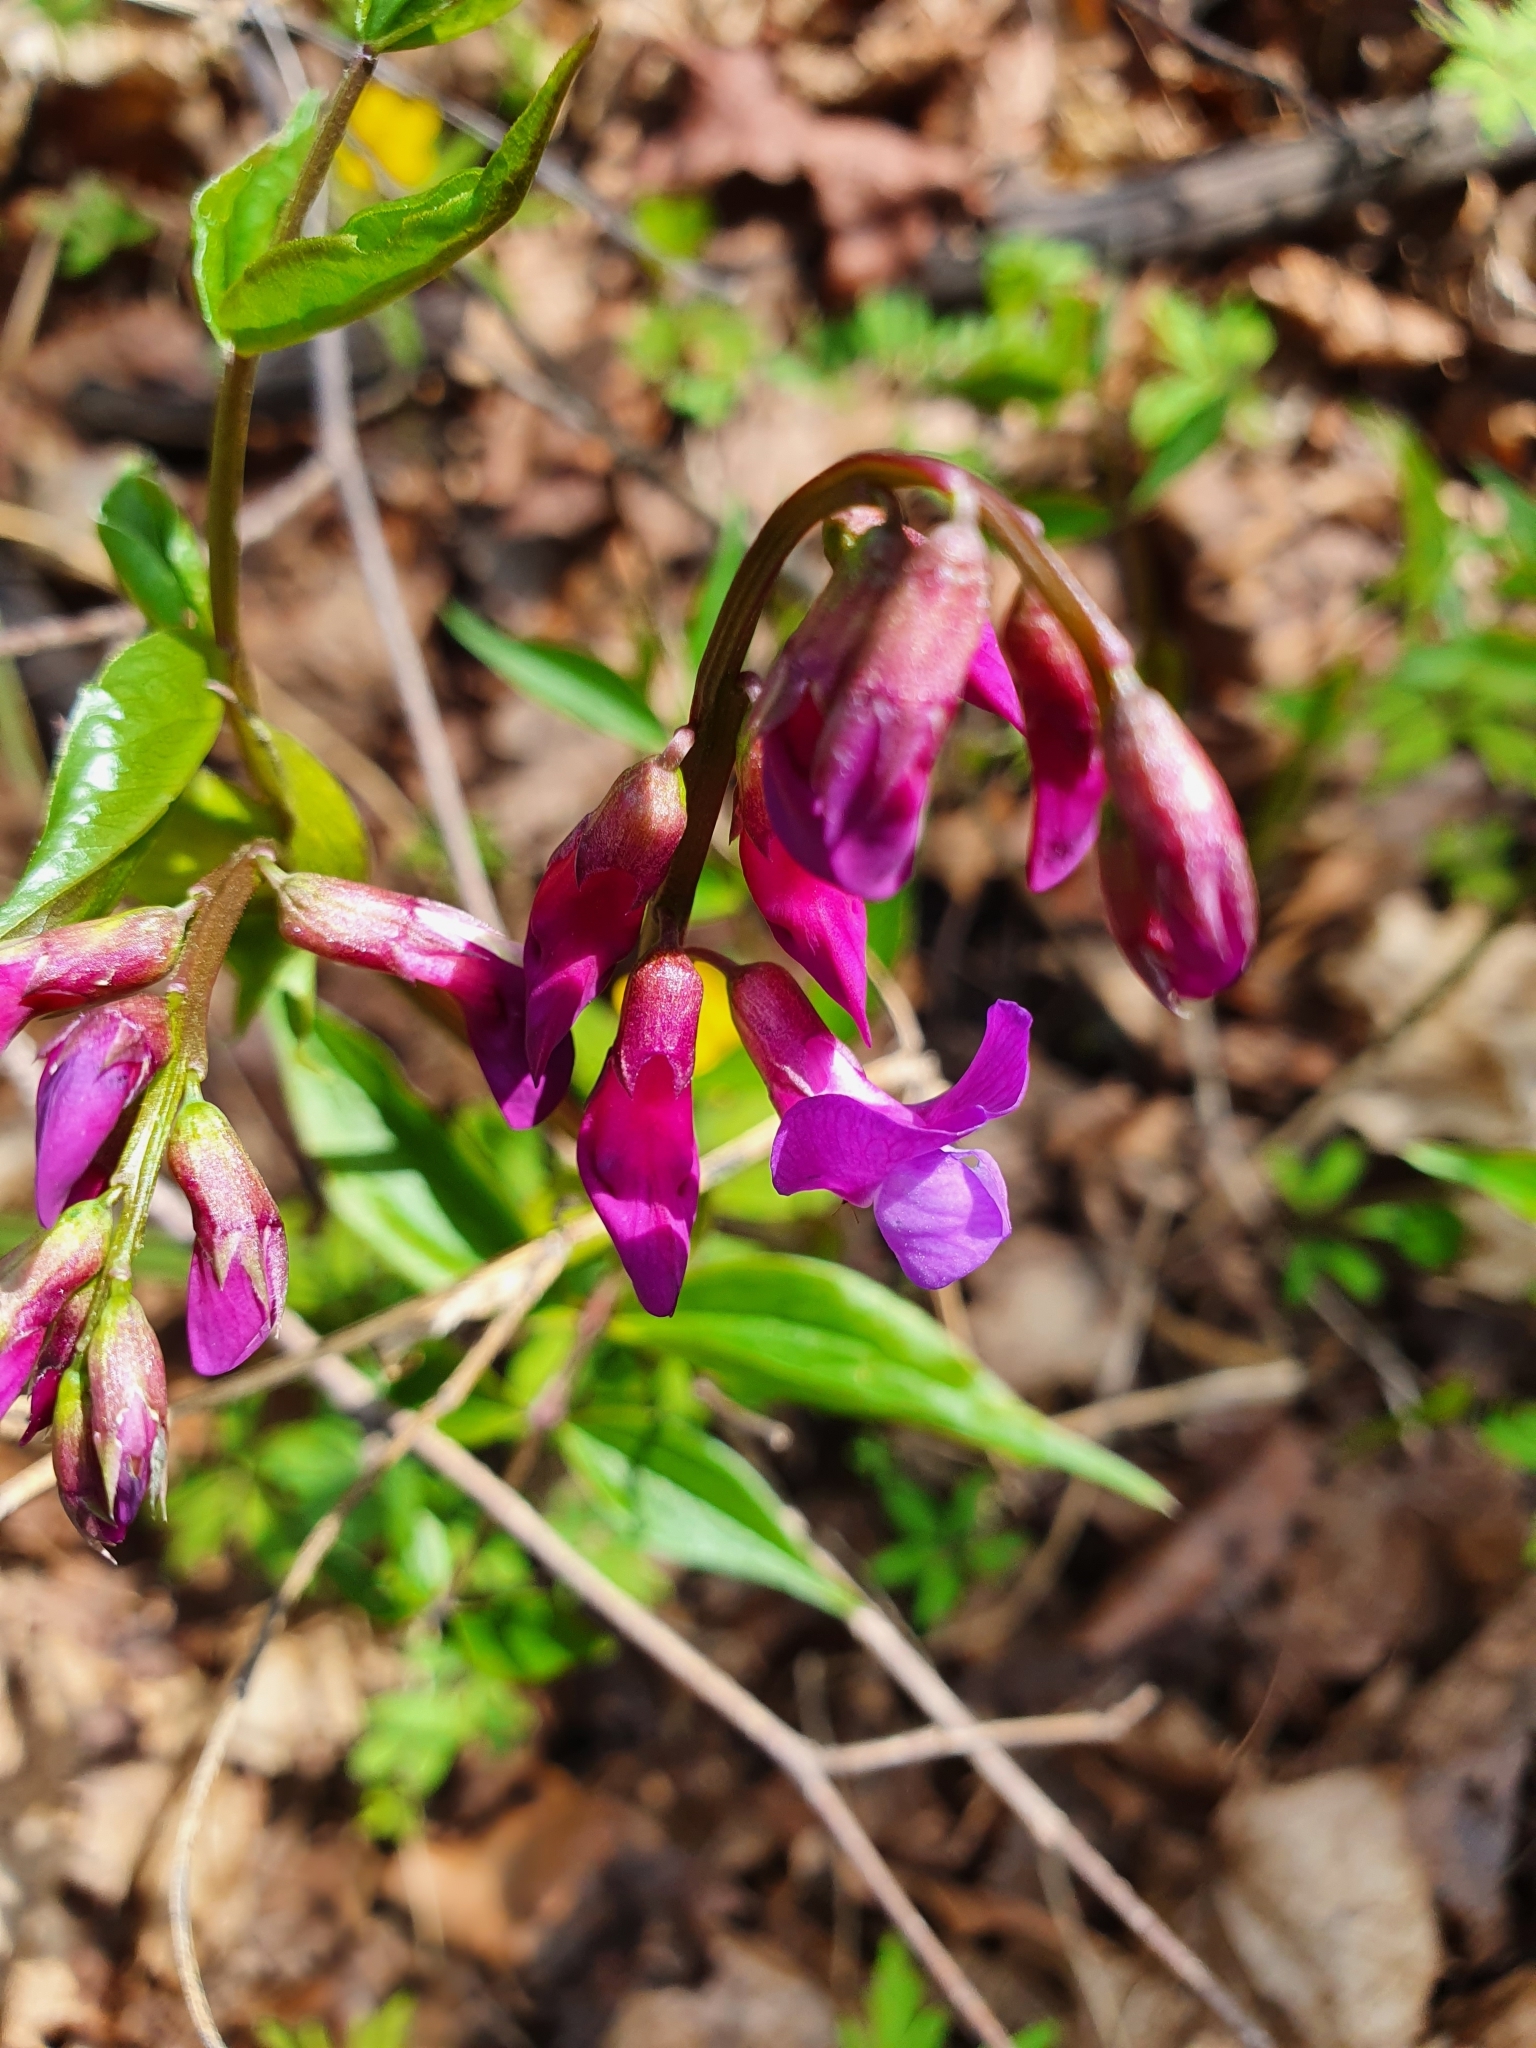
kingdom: Plantae
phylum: Tracheophyta
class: Magnoliopsida
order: Fabales
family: Fabaceae
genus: Lathyrus
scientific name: Lathyrus vernus
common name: Spring pea
